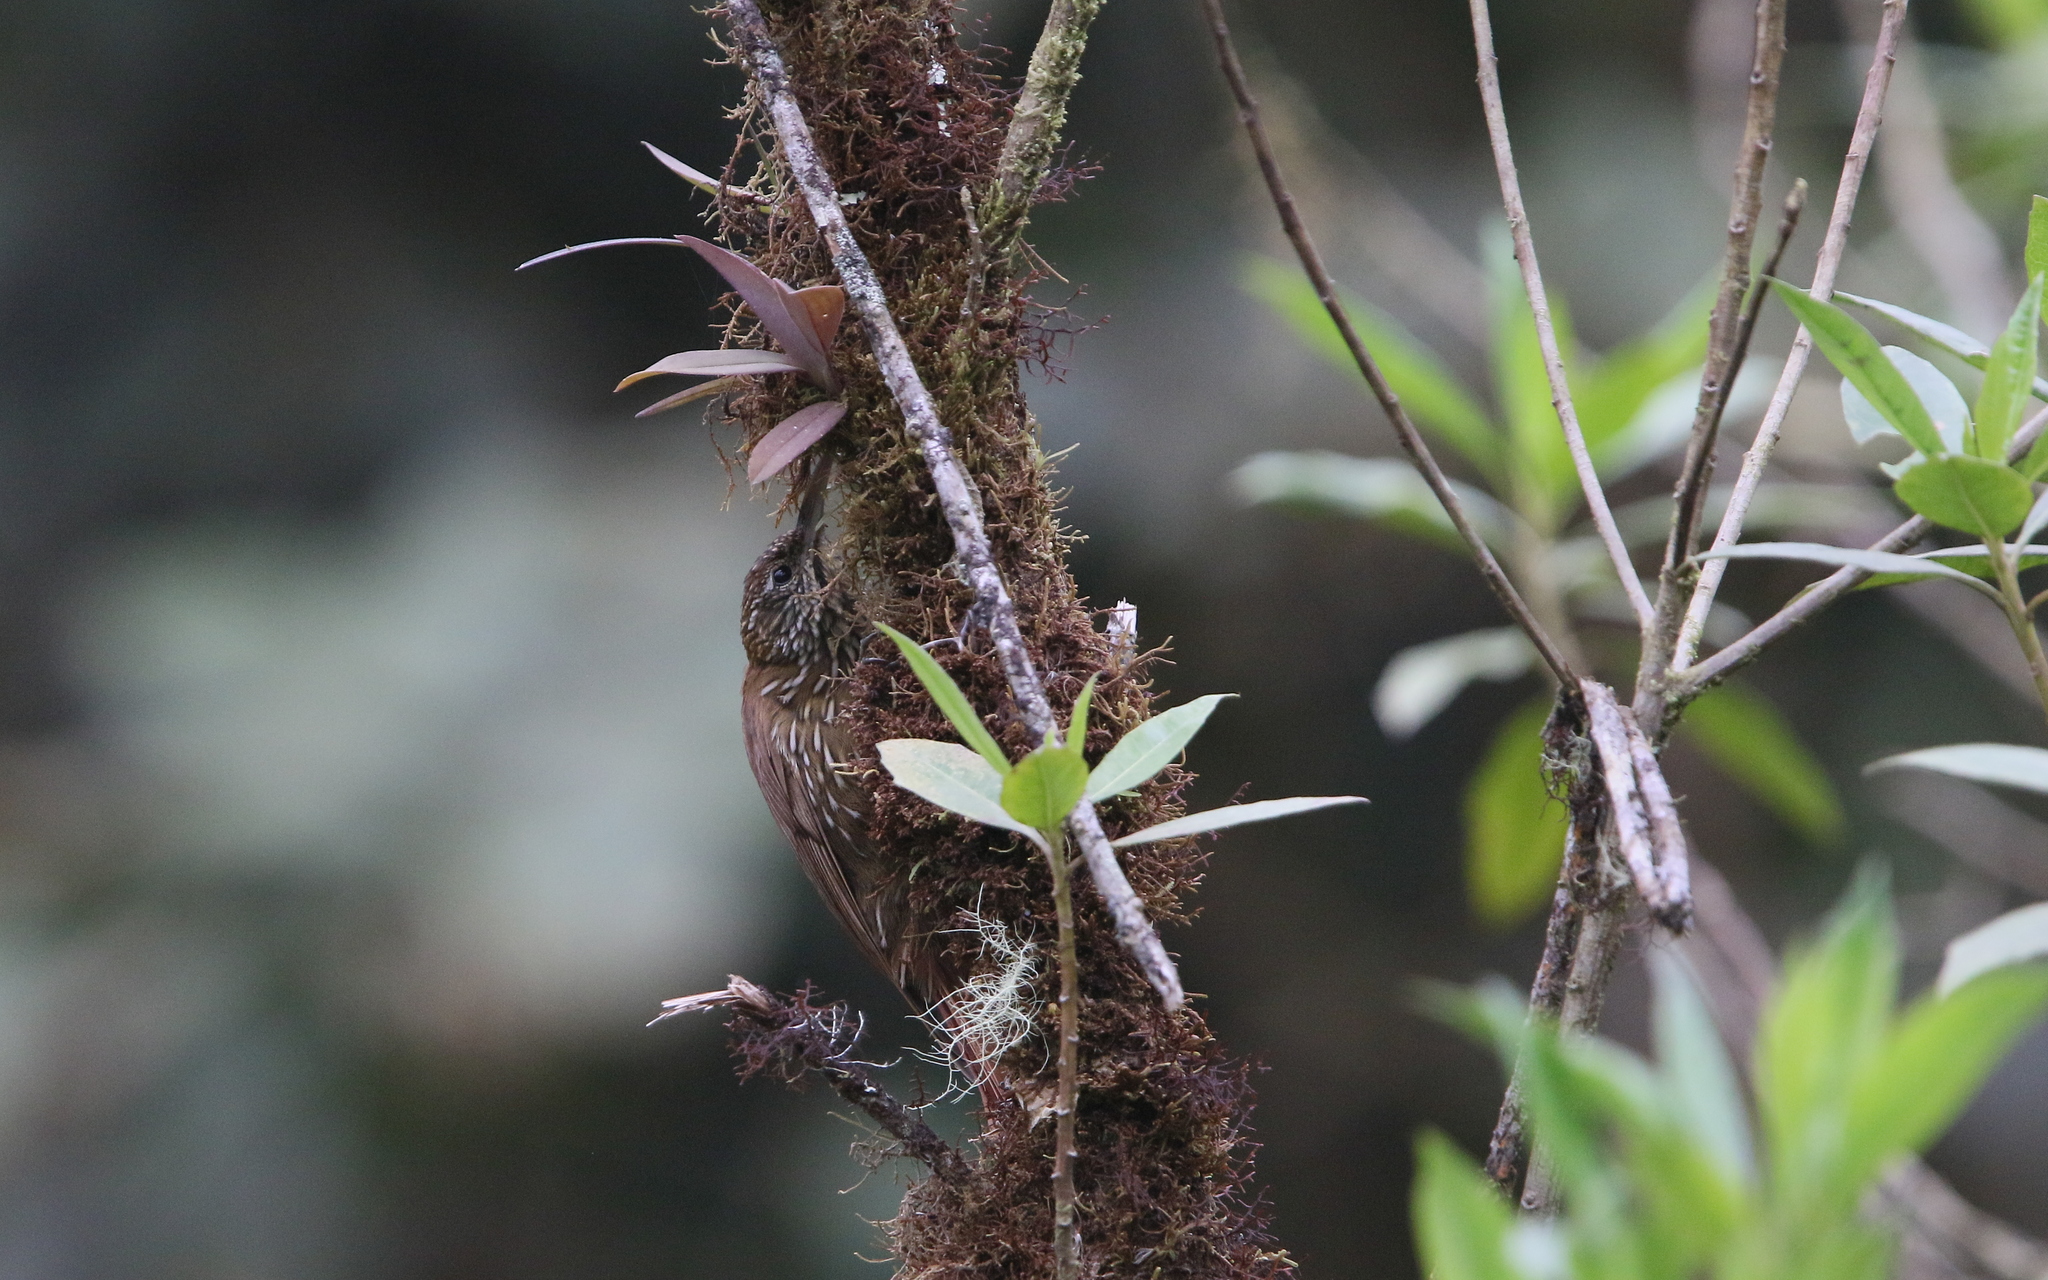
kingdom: Animalia
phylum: Chordata
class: Aves
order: Passeriformes
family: Furnariidae
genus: Lepidocolaptes
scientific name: Lepidocolaptes lacrymiger
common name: Montane woodcreeper
